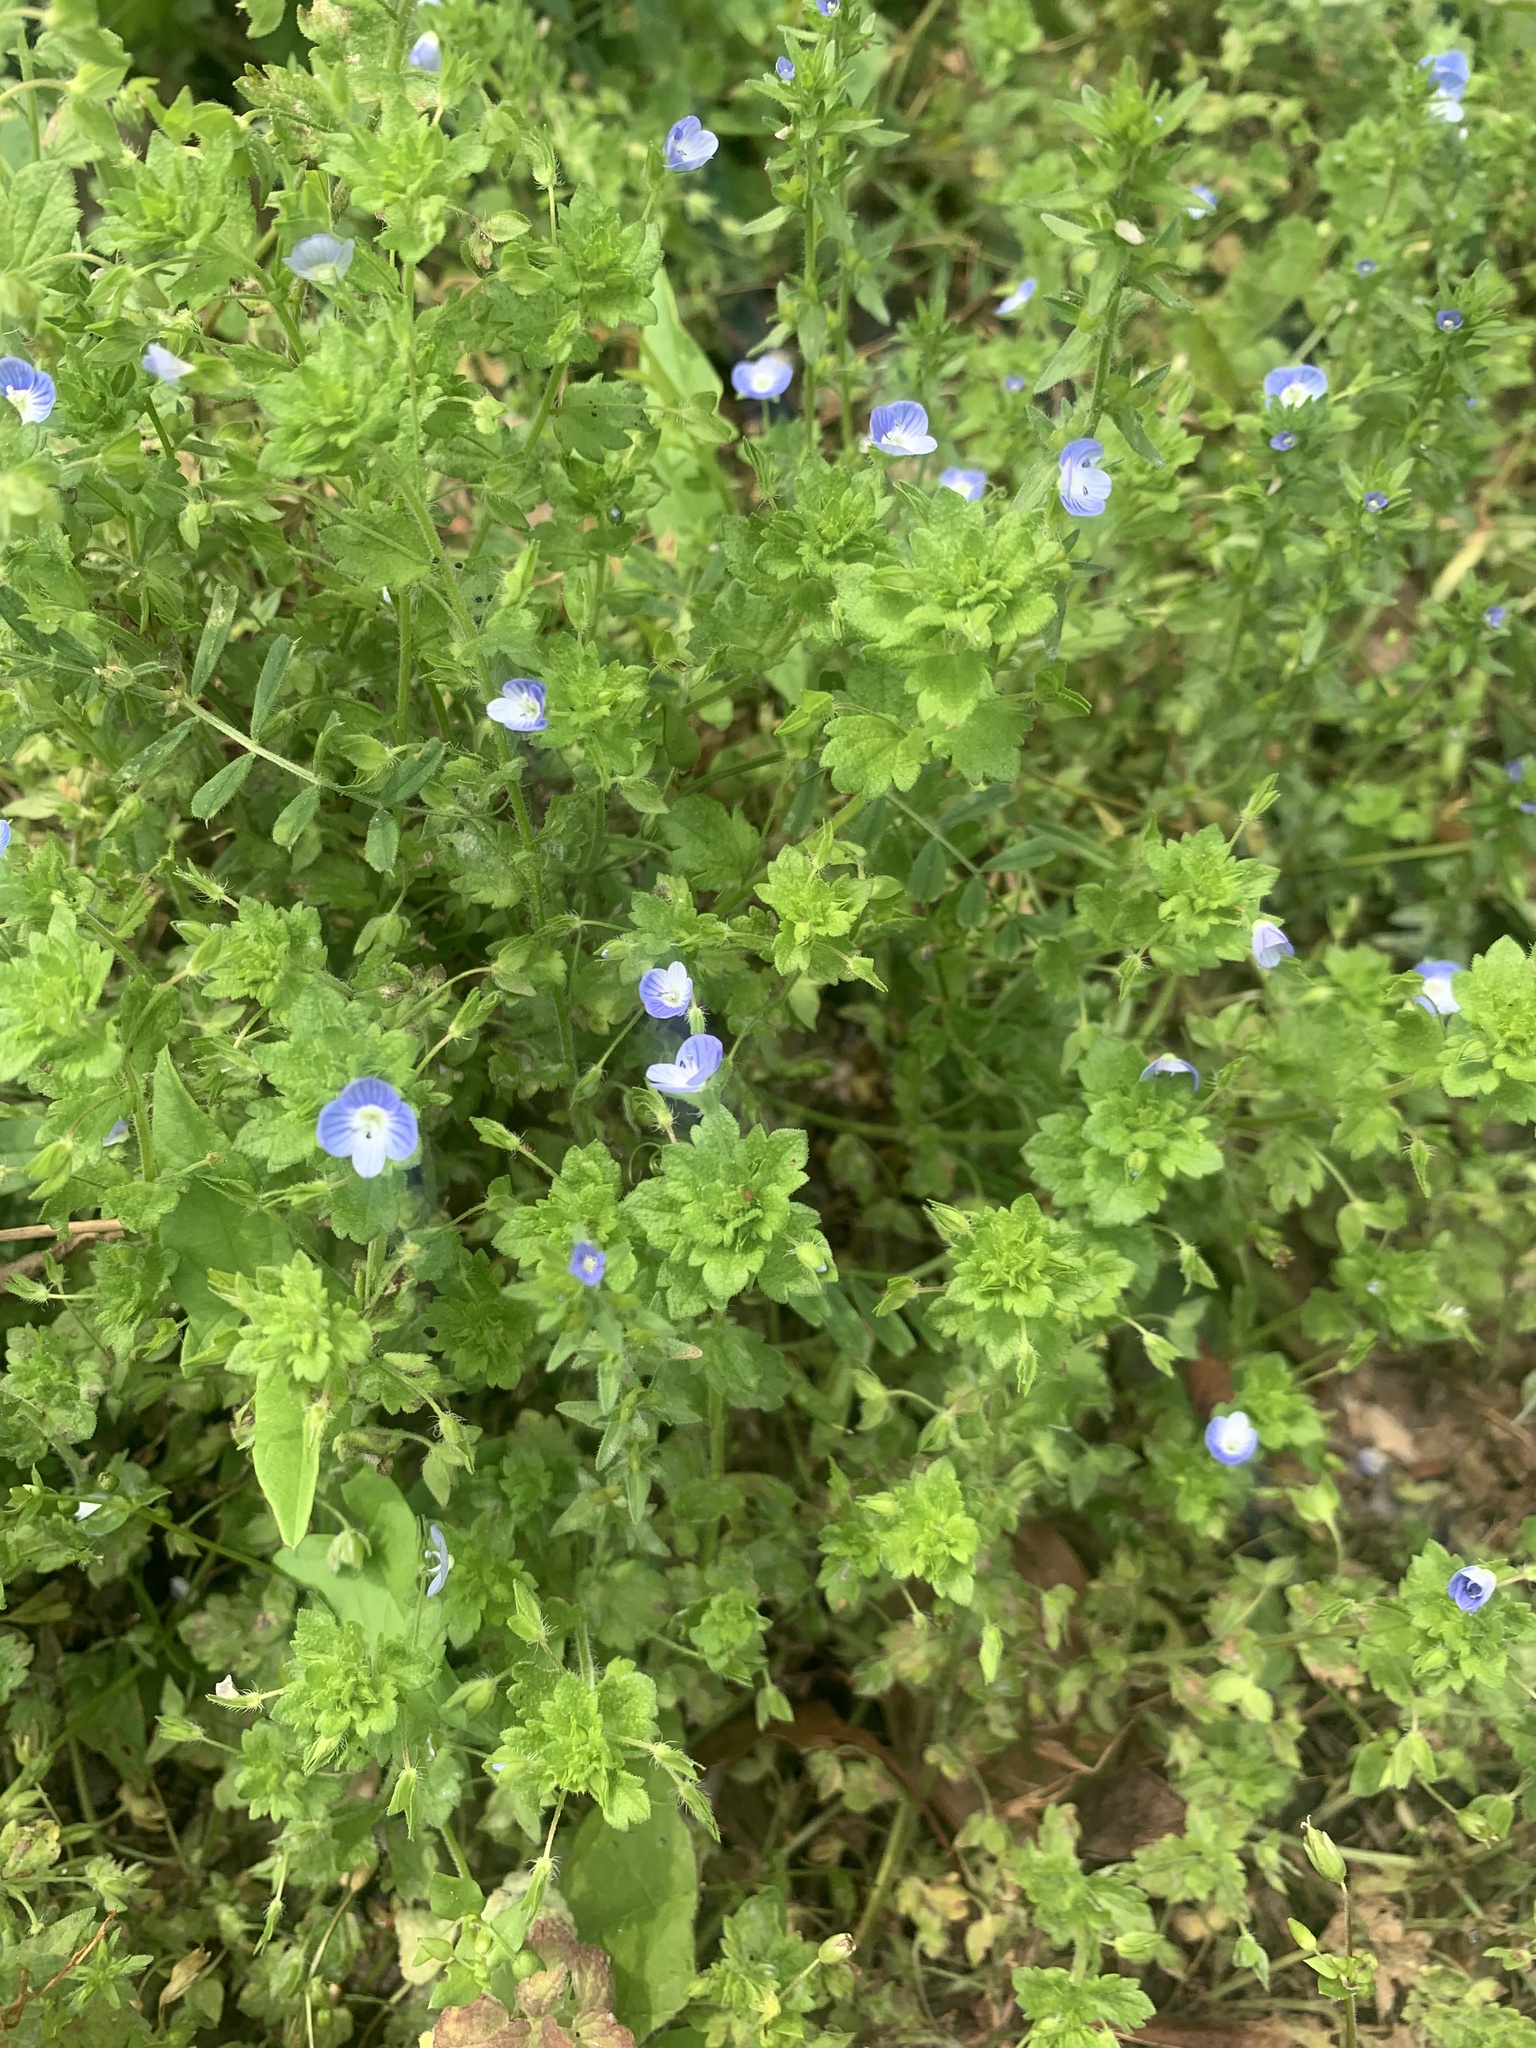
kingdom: Plantae
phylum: Tracheophyta
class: Magnoliopsida
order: Lamiales
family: Plantaginaceae
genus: Veronica
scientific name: Veronica persica
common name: Common field-speedwell
